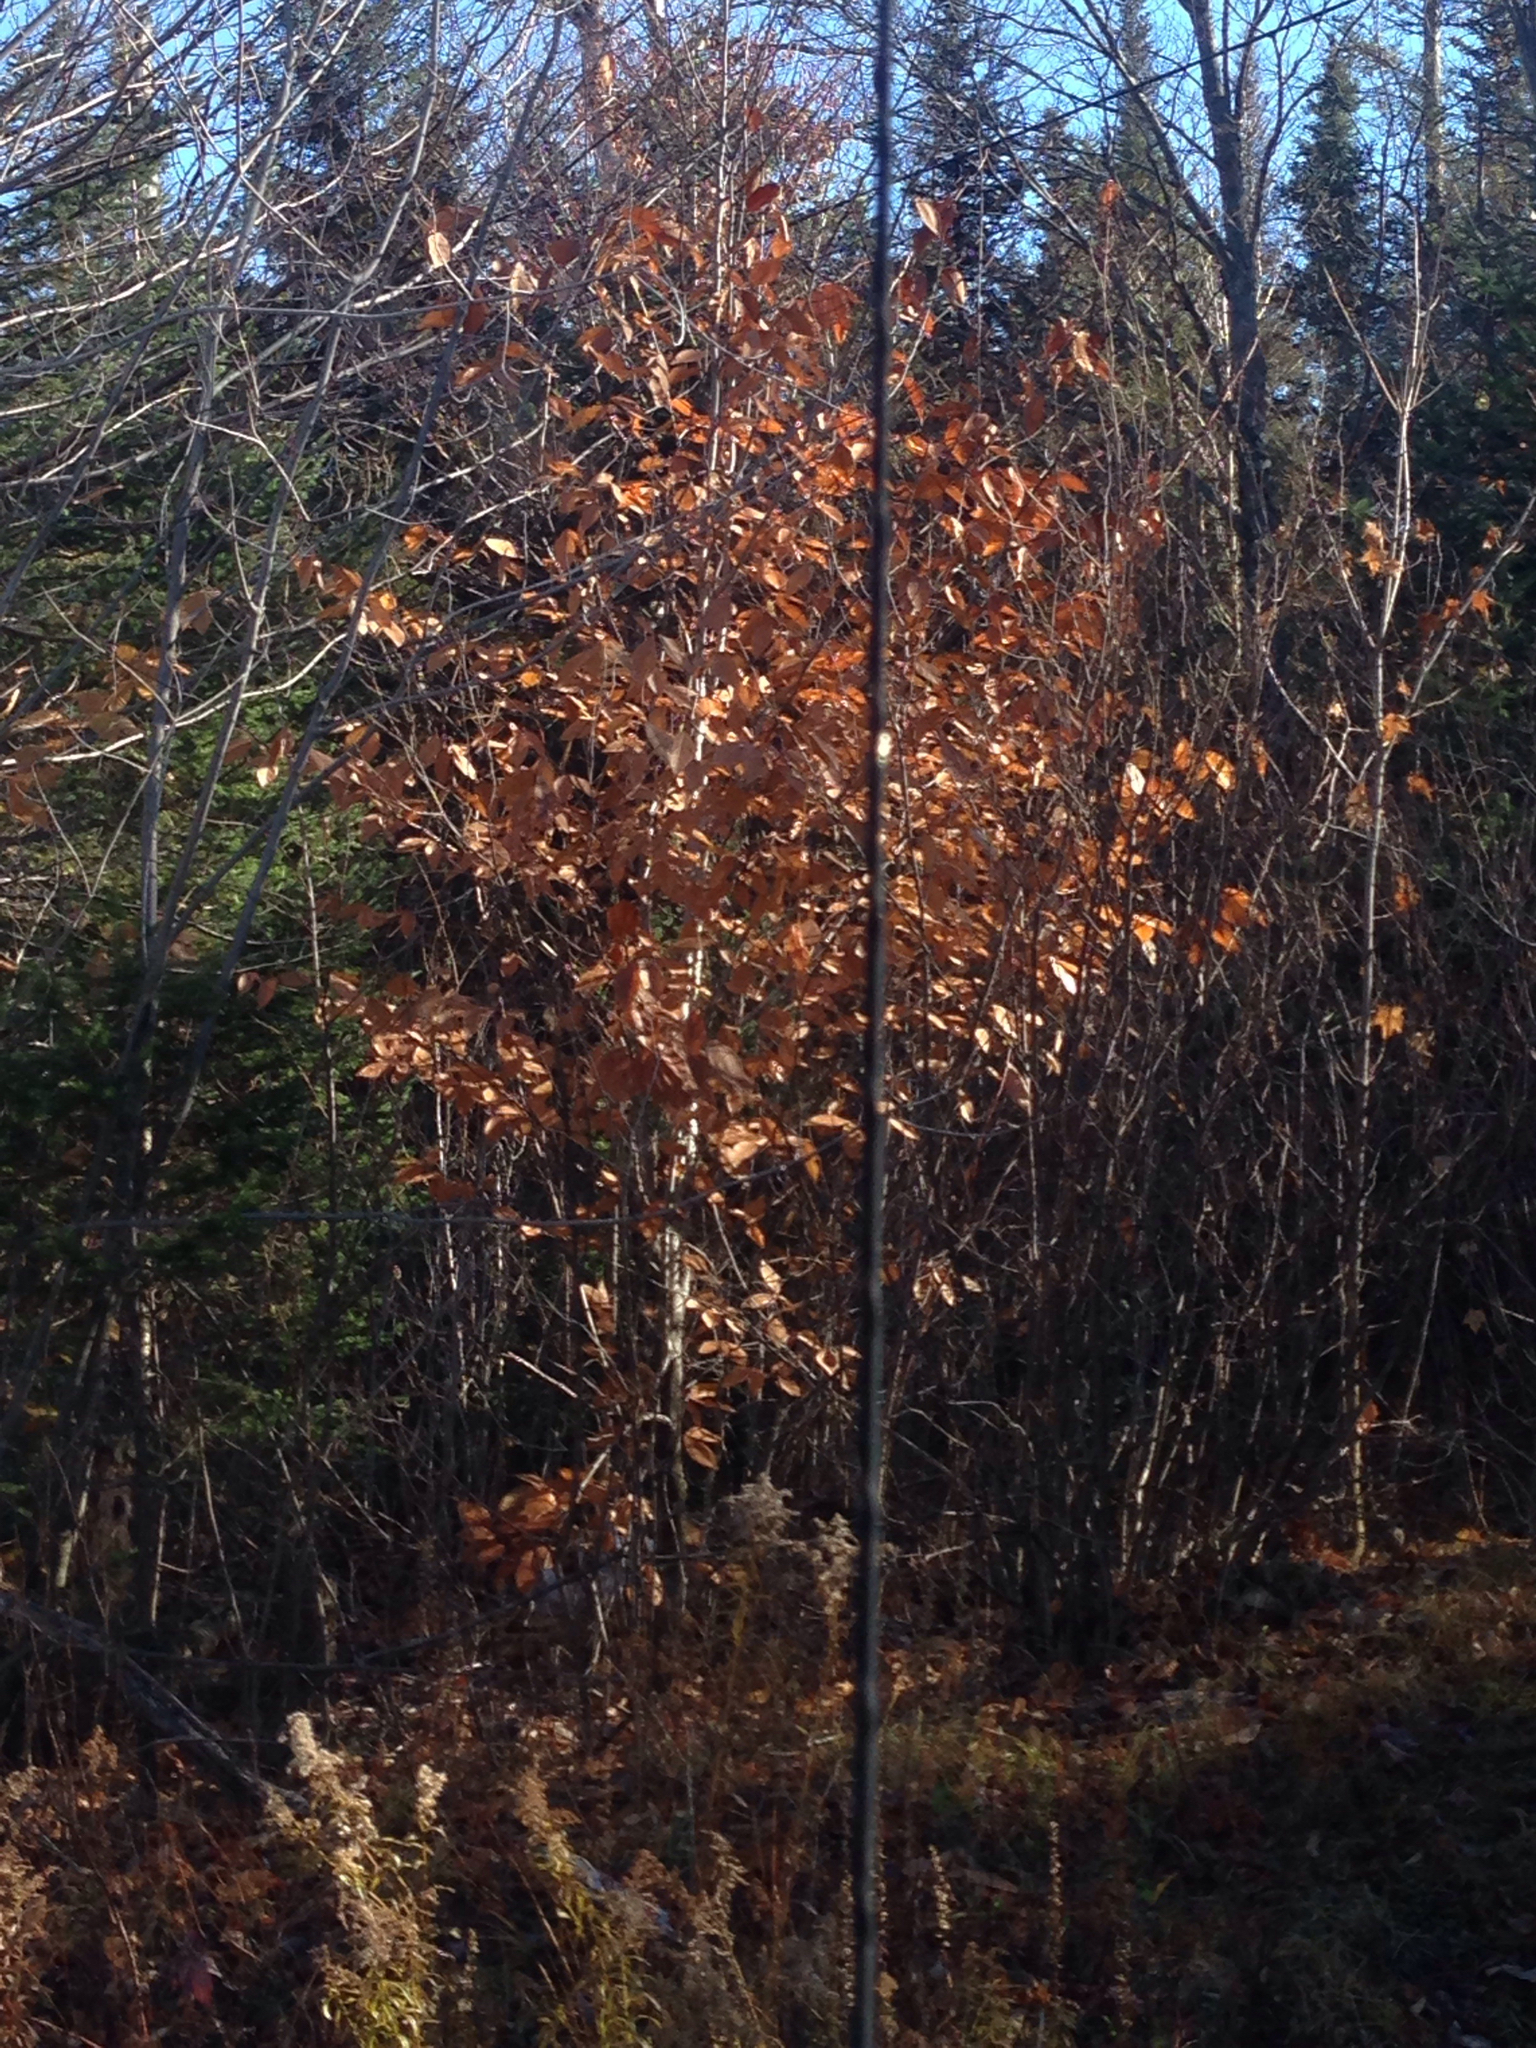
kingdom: Plantae
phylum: Tracheophyta
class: Magnoliopsida
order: Fagales
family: Fagaceae
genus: Fagus
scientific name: Fagus grandifolia
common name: American beech
